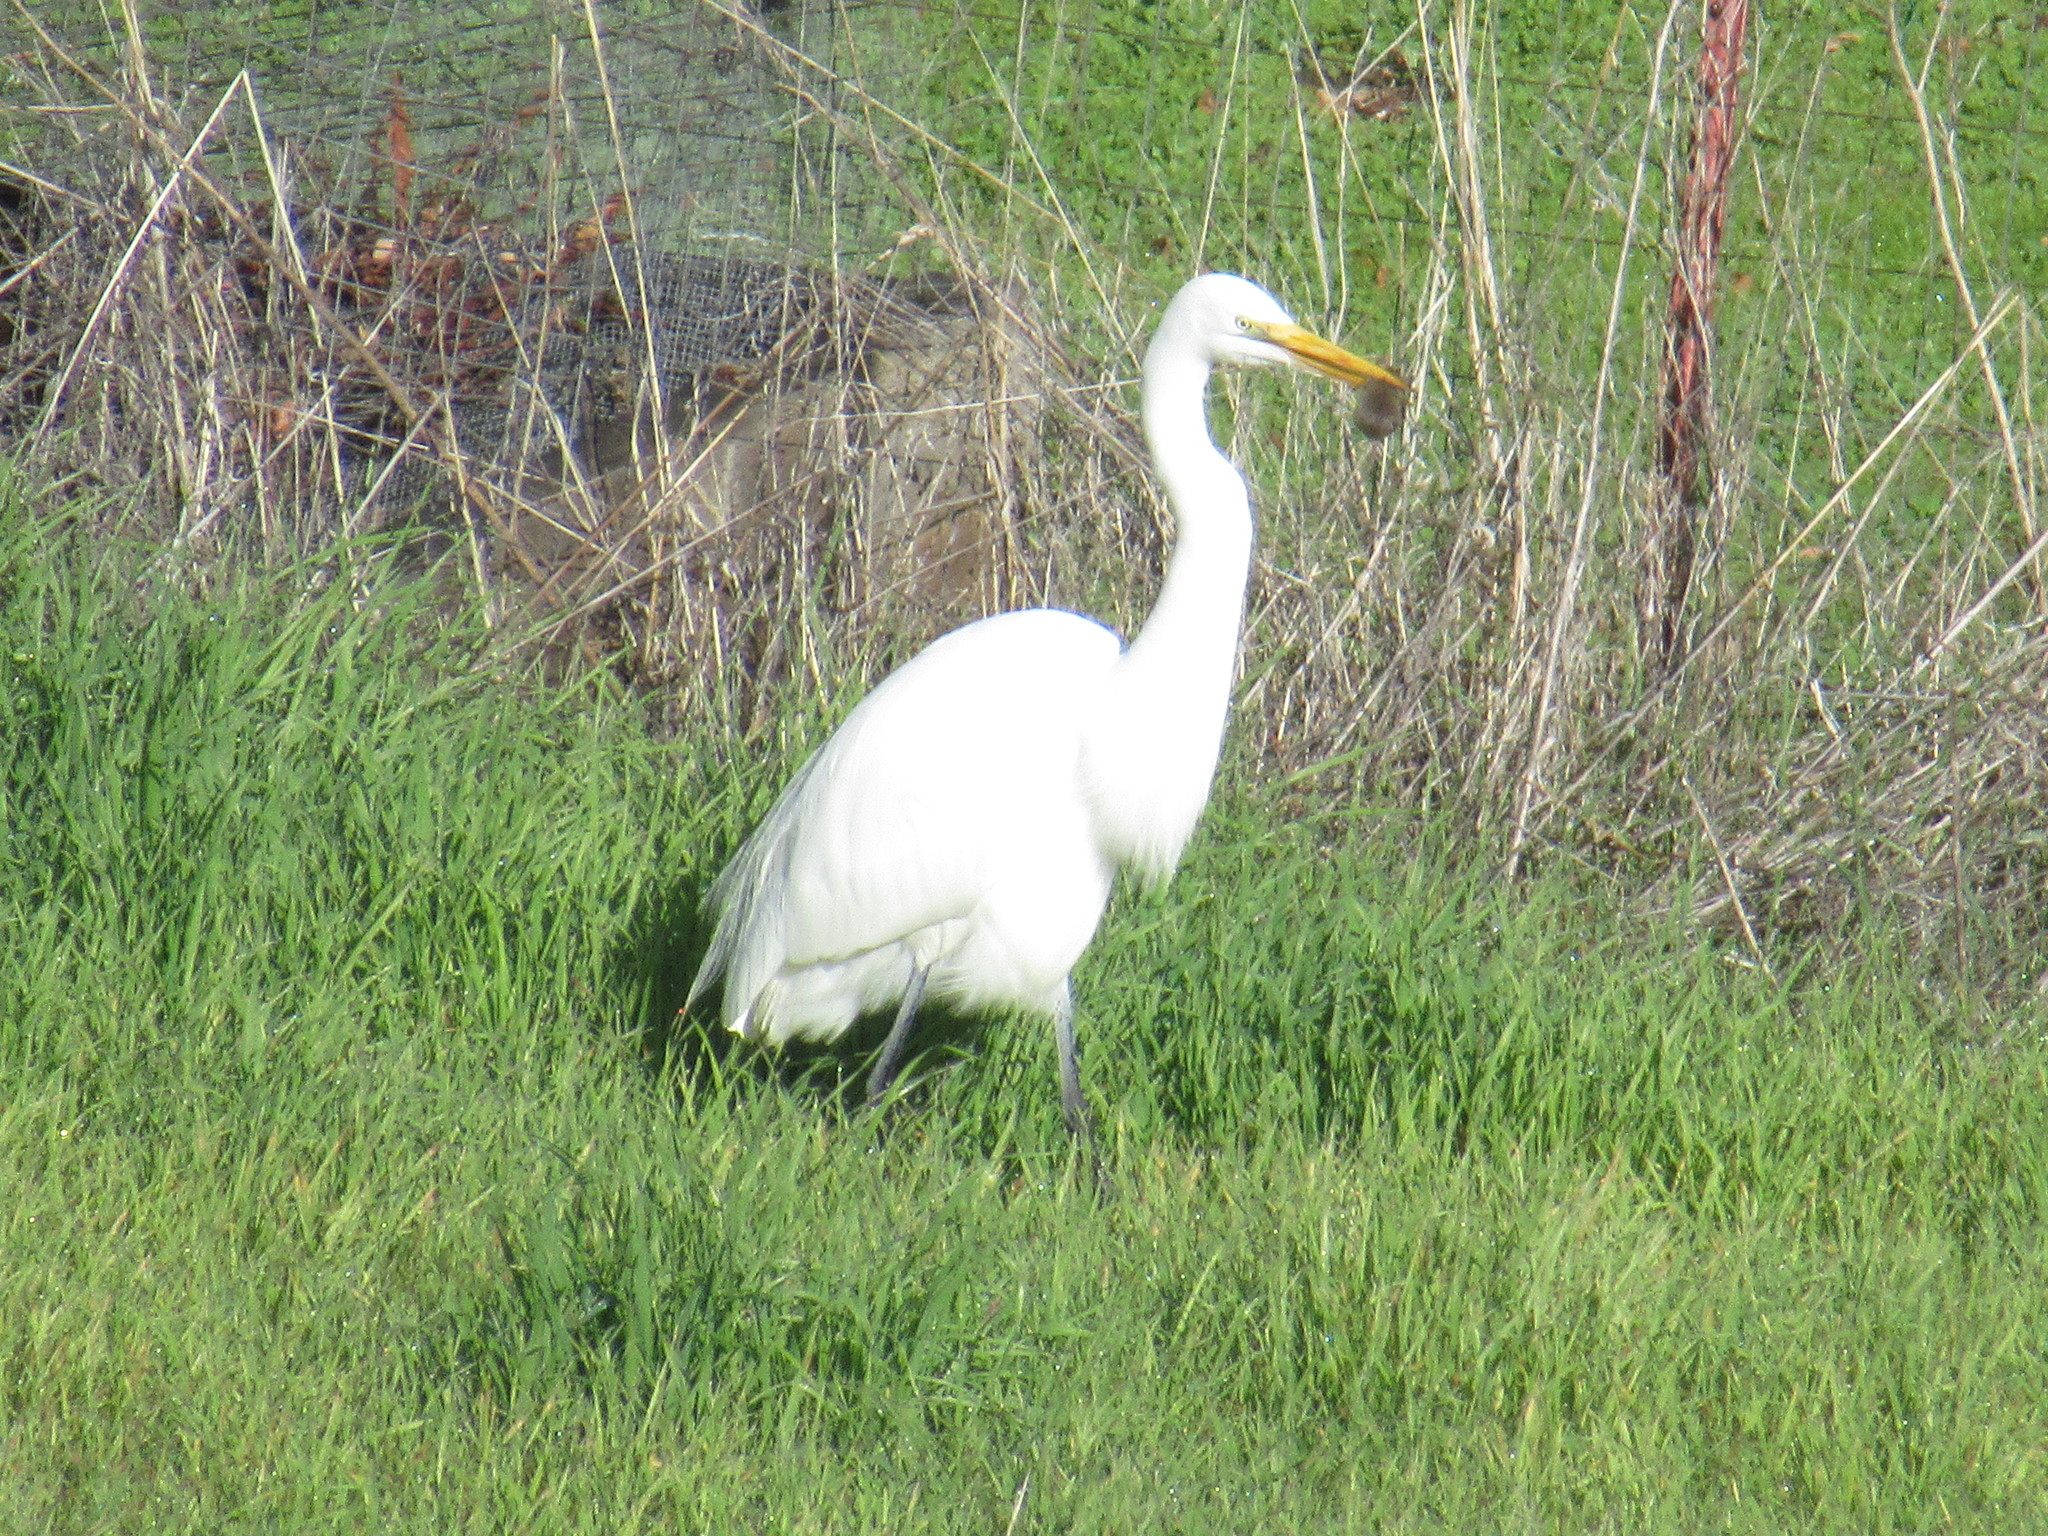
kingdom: Animalia
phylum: Chordata
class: Aves
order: Pelecaniformes
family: Ardeidae
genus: Ardea
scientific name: Ardea alba
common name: Great egret
